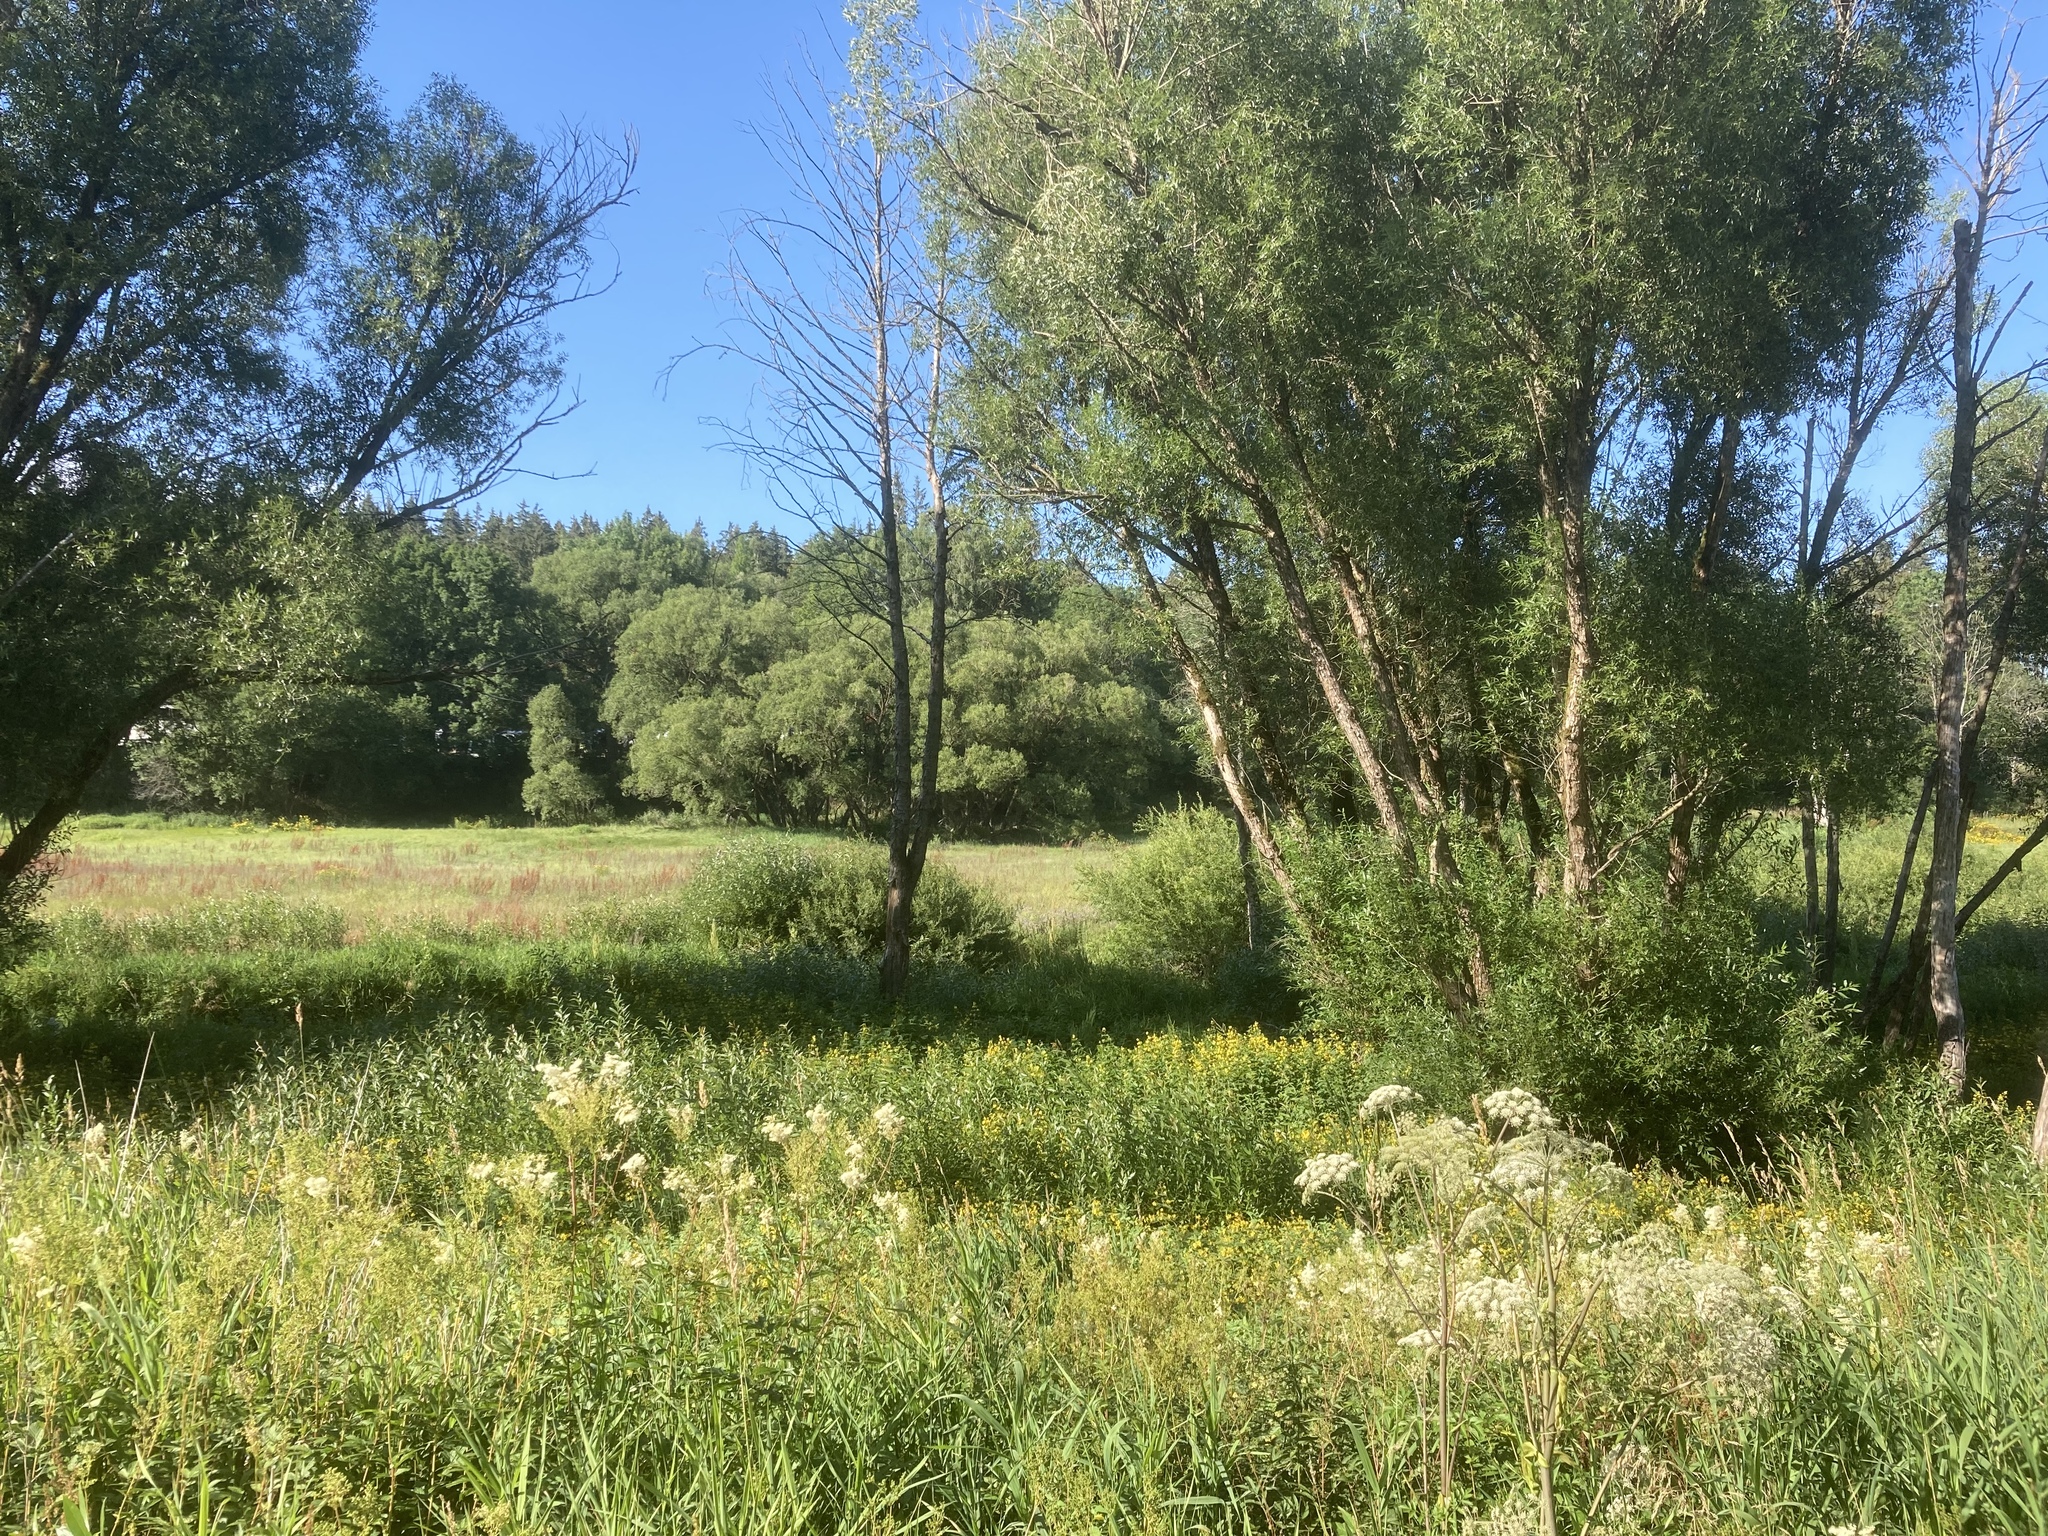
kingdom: Plantae
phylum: Tracheophyta
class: Magnoliopsida
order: Rosales
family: Rosaceae
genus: Filipendula
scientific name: Filipendula ulmaria
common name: Meadowsweet
